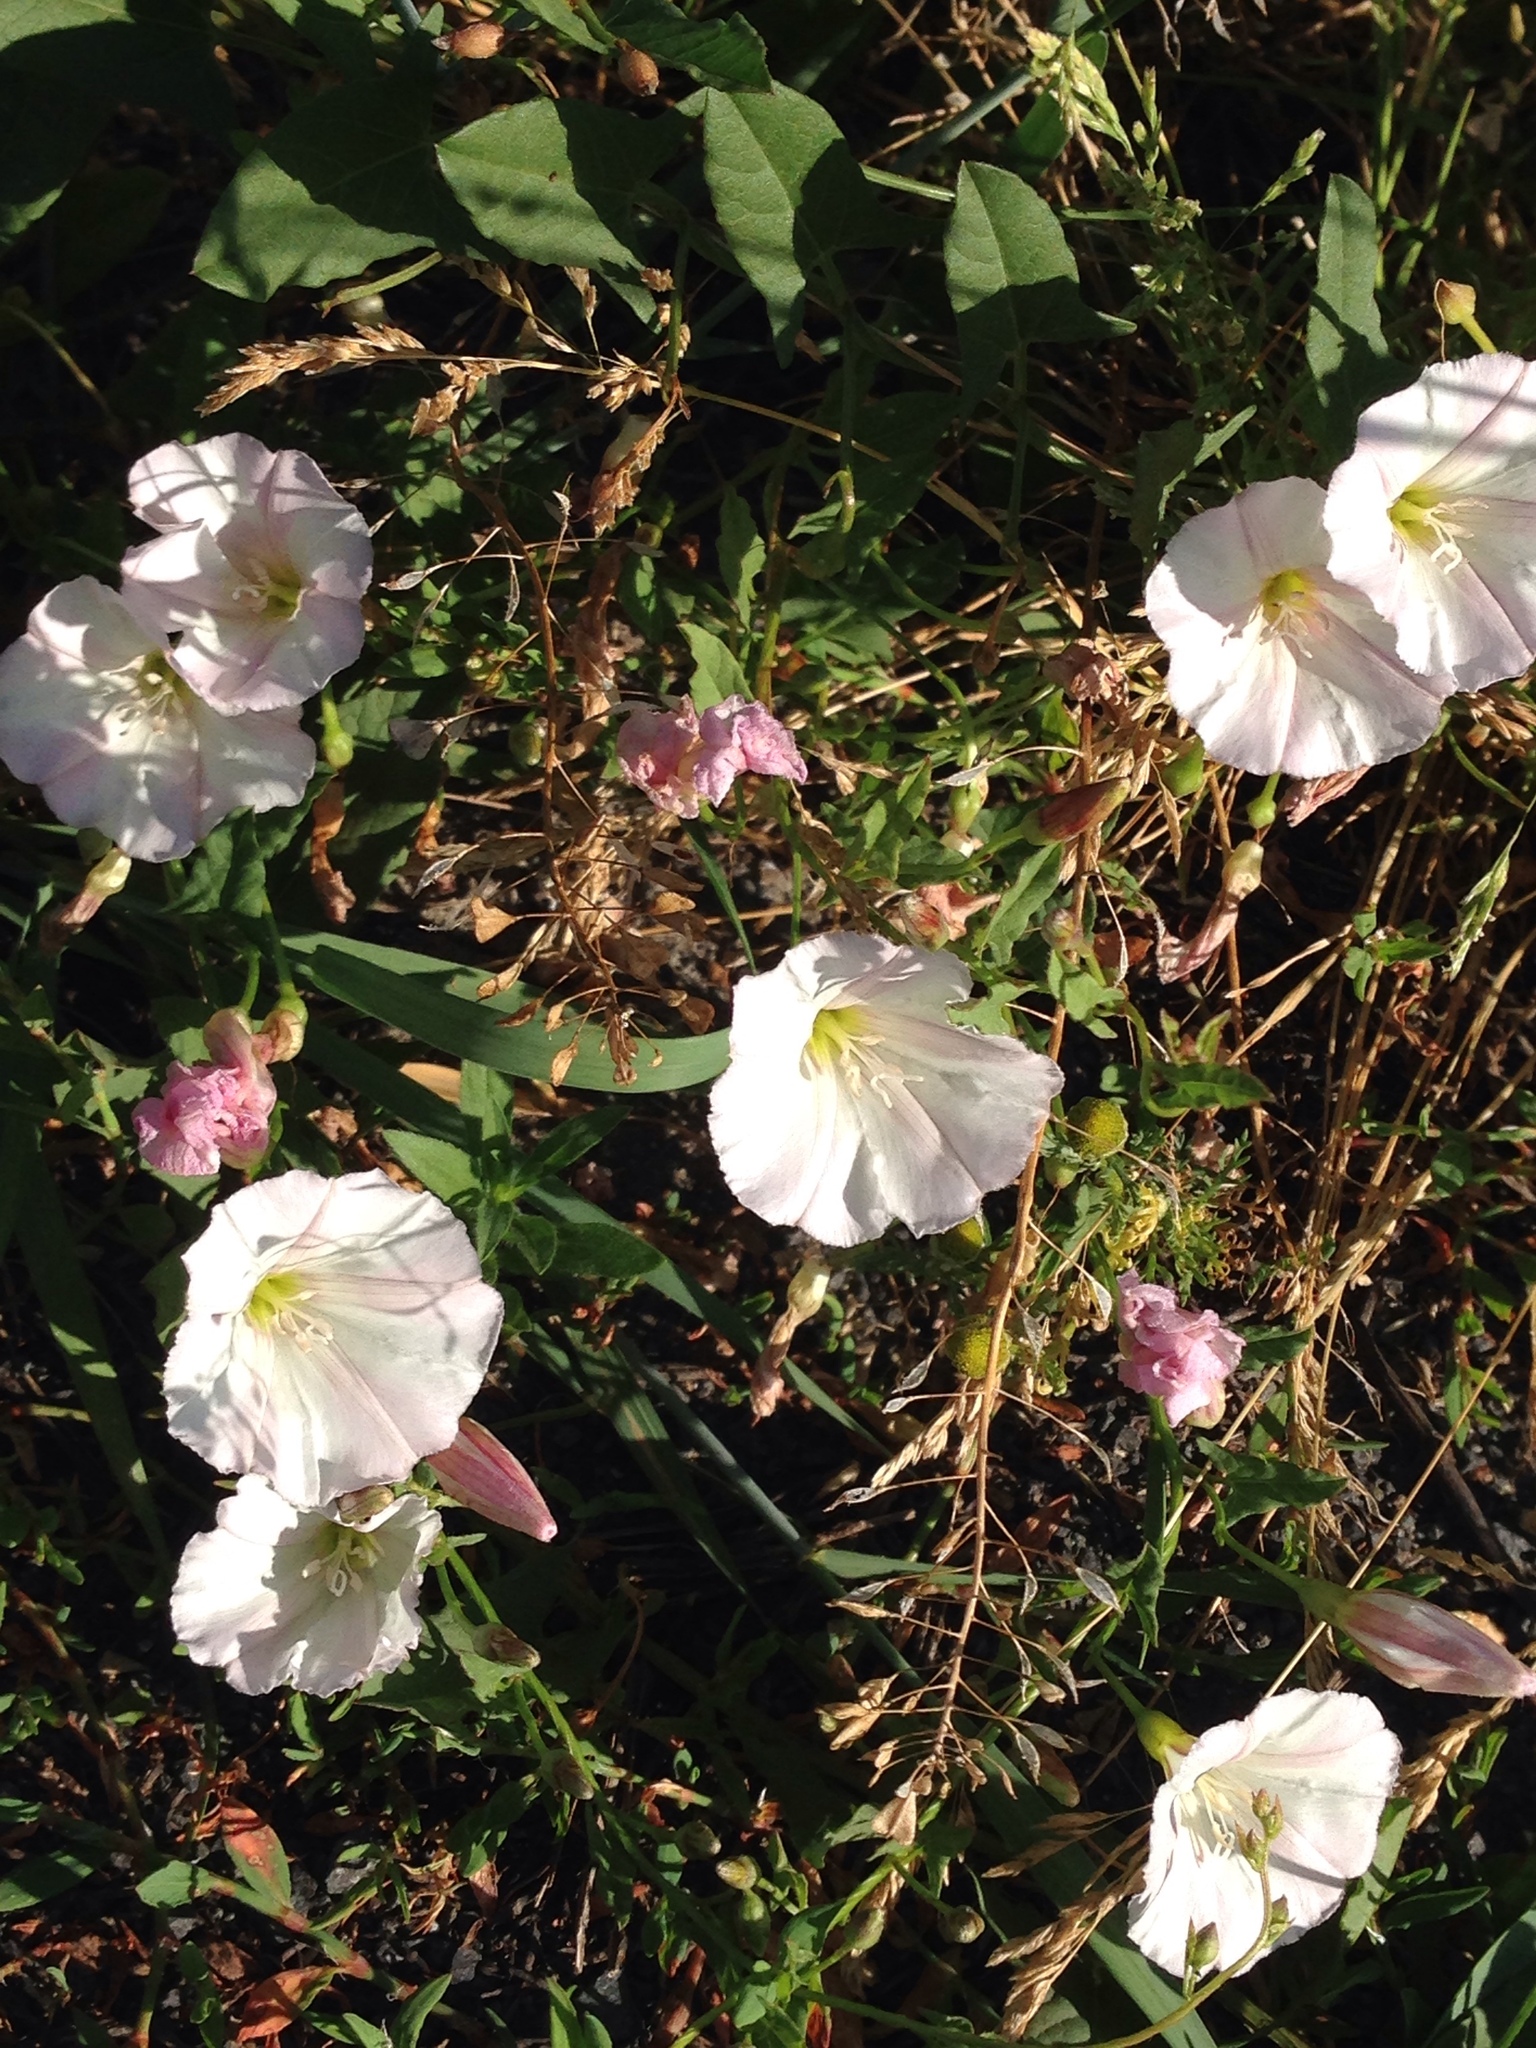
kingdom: Plantae
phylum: Tracheophyta
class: Magnoliopsida
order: Solanales
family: Convolvulaceae
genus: Convolvulus
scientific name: Convolvulus arvensis
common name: Field bindweed
